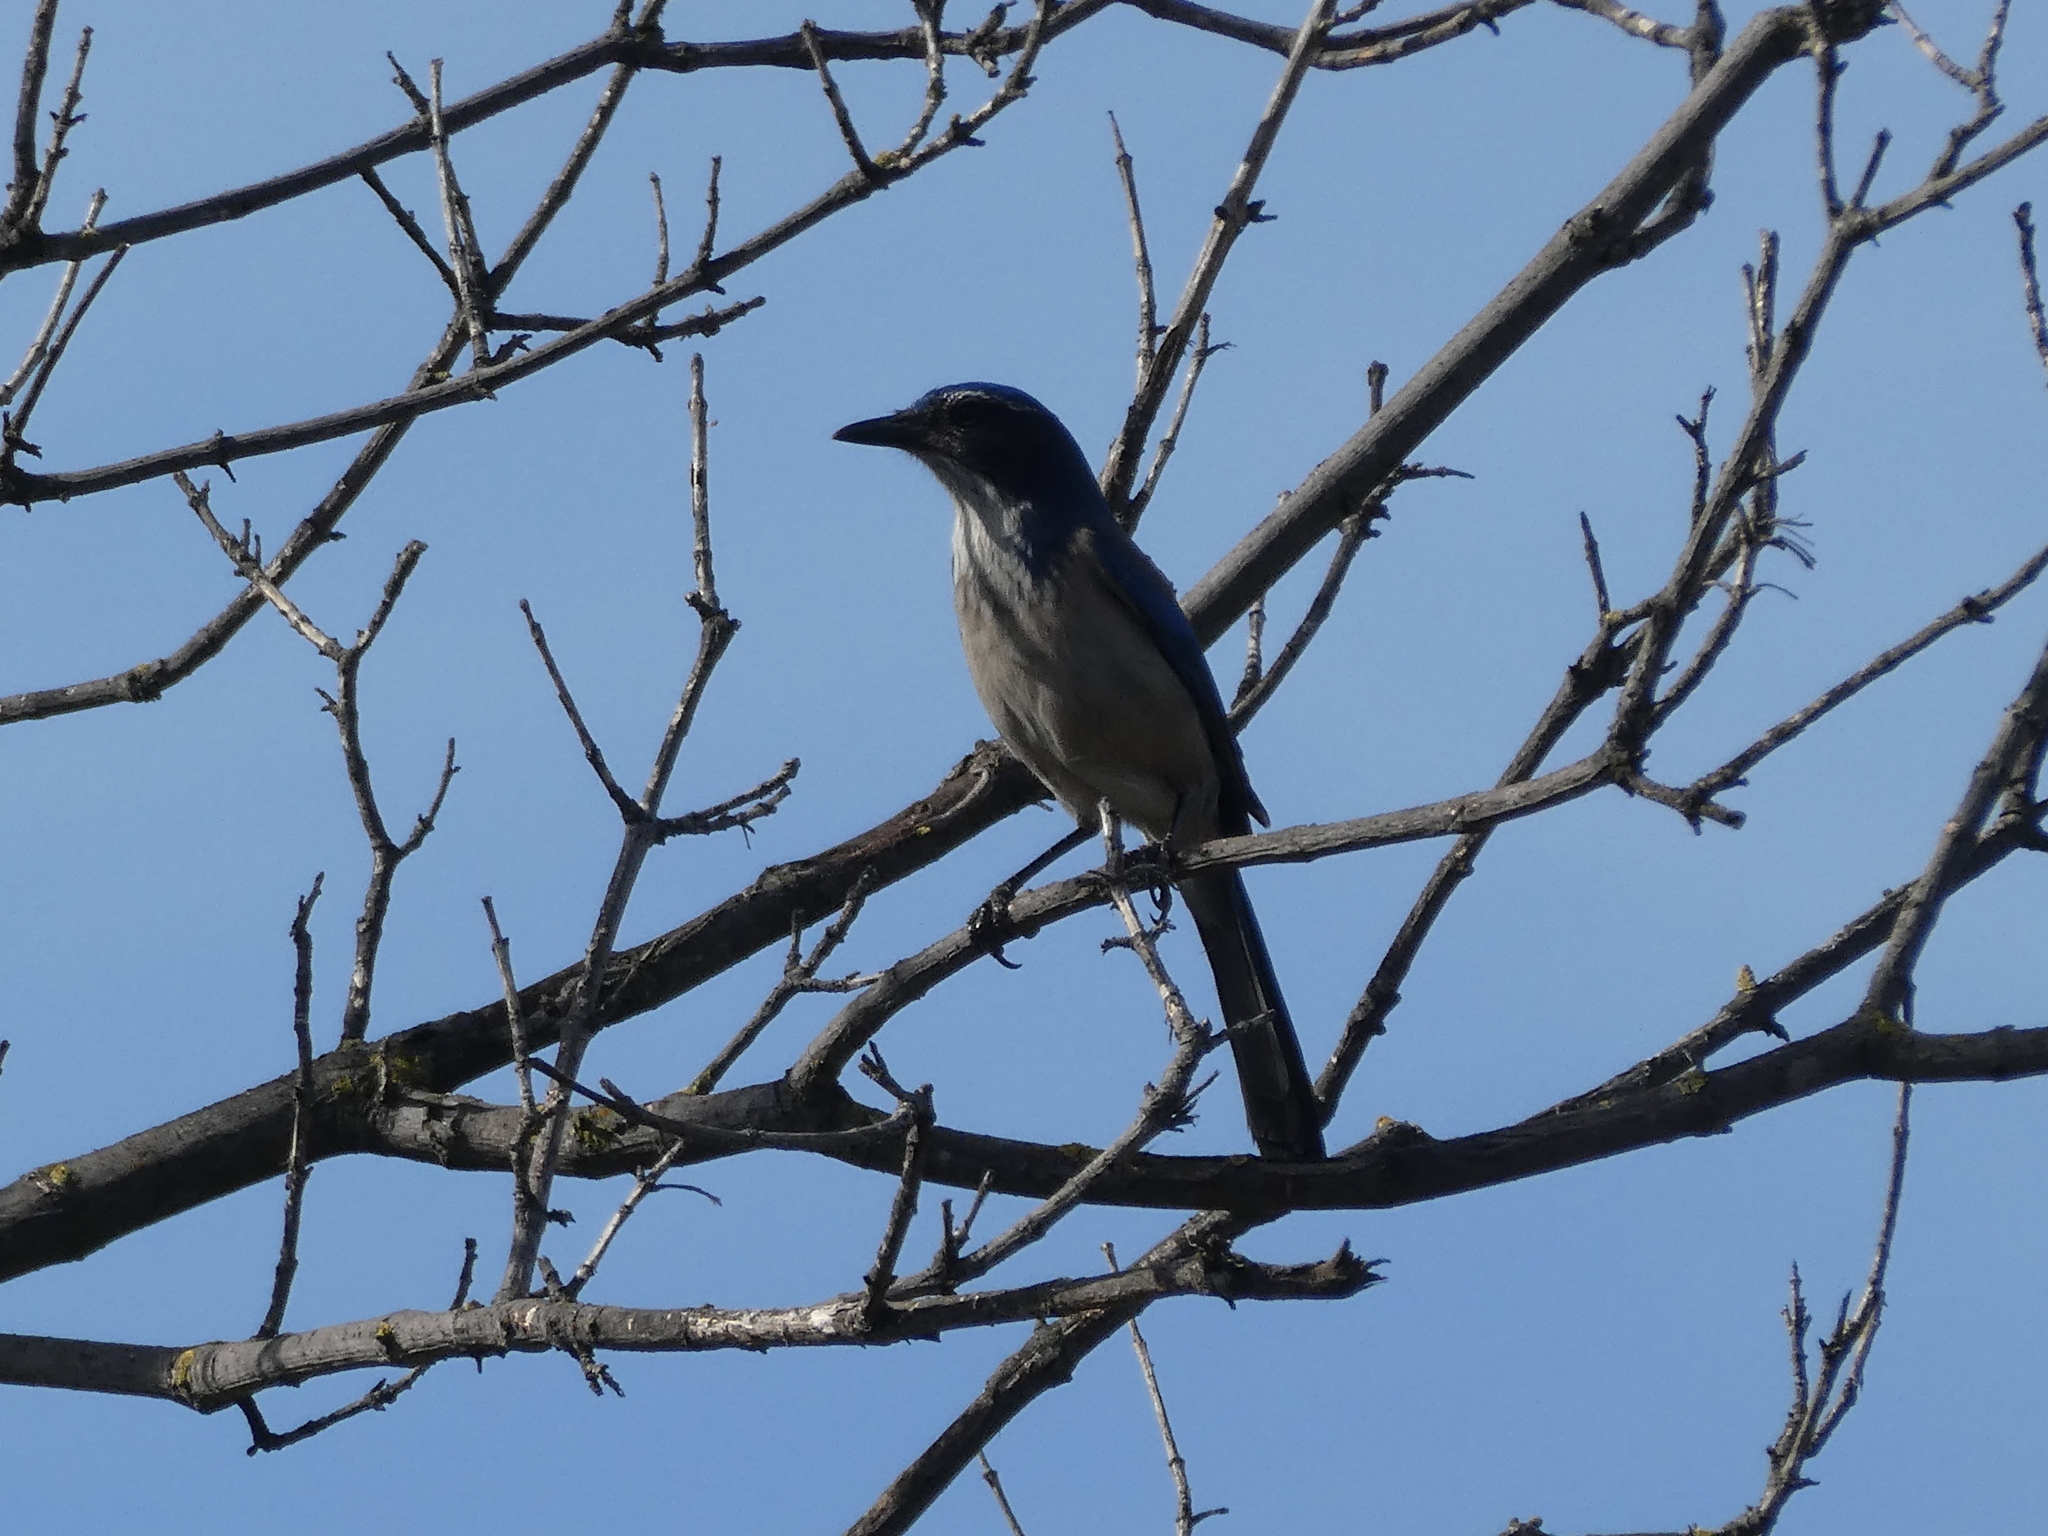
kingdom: Animalia
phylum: Chordata
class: Aves
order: Passeriformes
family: Corvidae
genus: Aphelocoma
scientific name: Aphelocoma californica
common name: California scrub-jay
